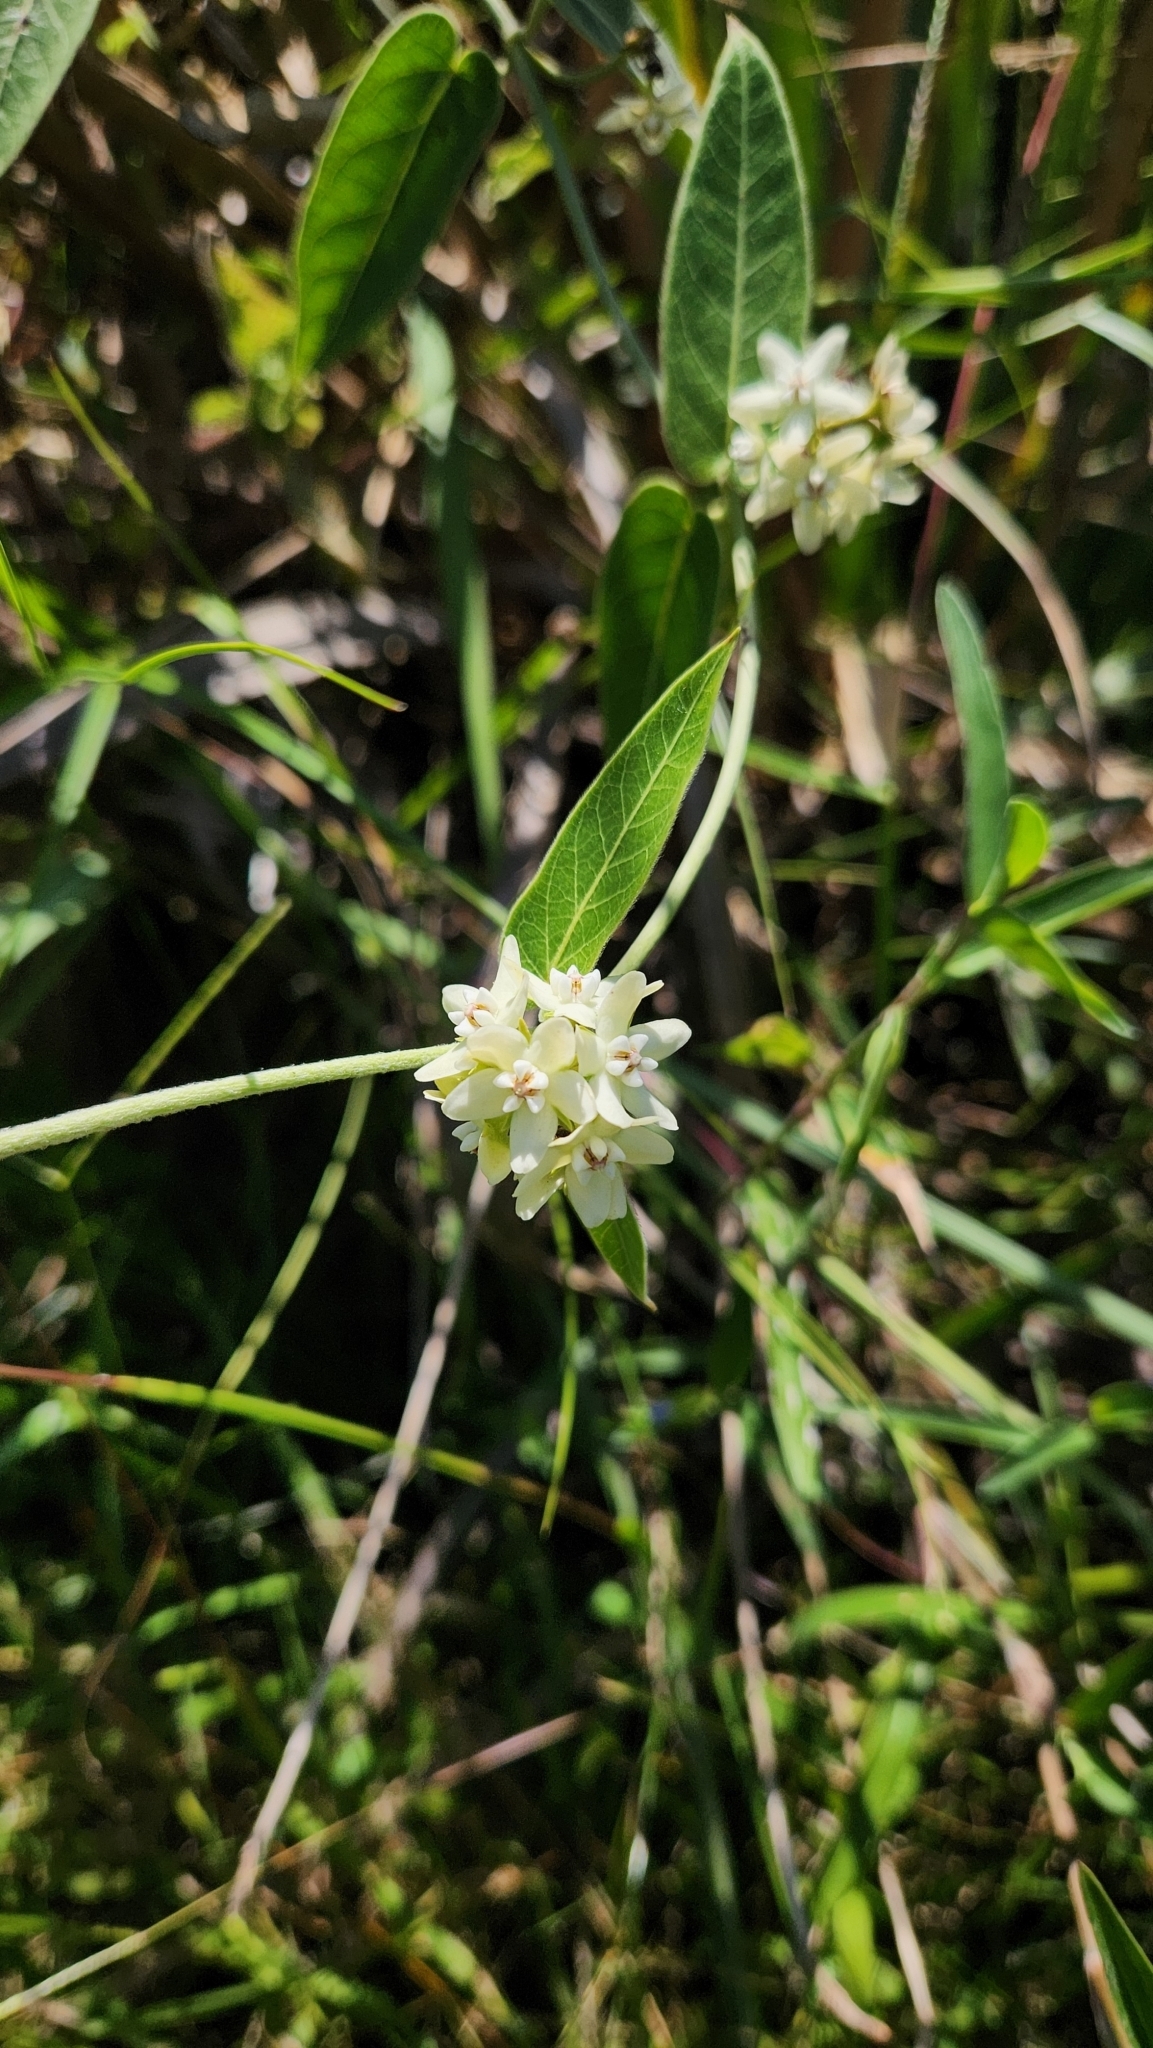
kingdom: Plantae
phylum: Tracheophyta
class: Magnoliopsida
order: Gentianales
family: Apocynaceae
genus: Funastrum
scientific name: Funastrum flavum
